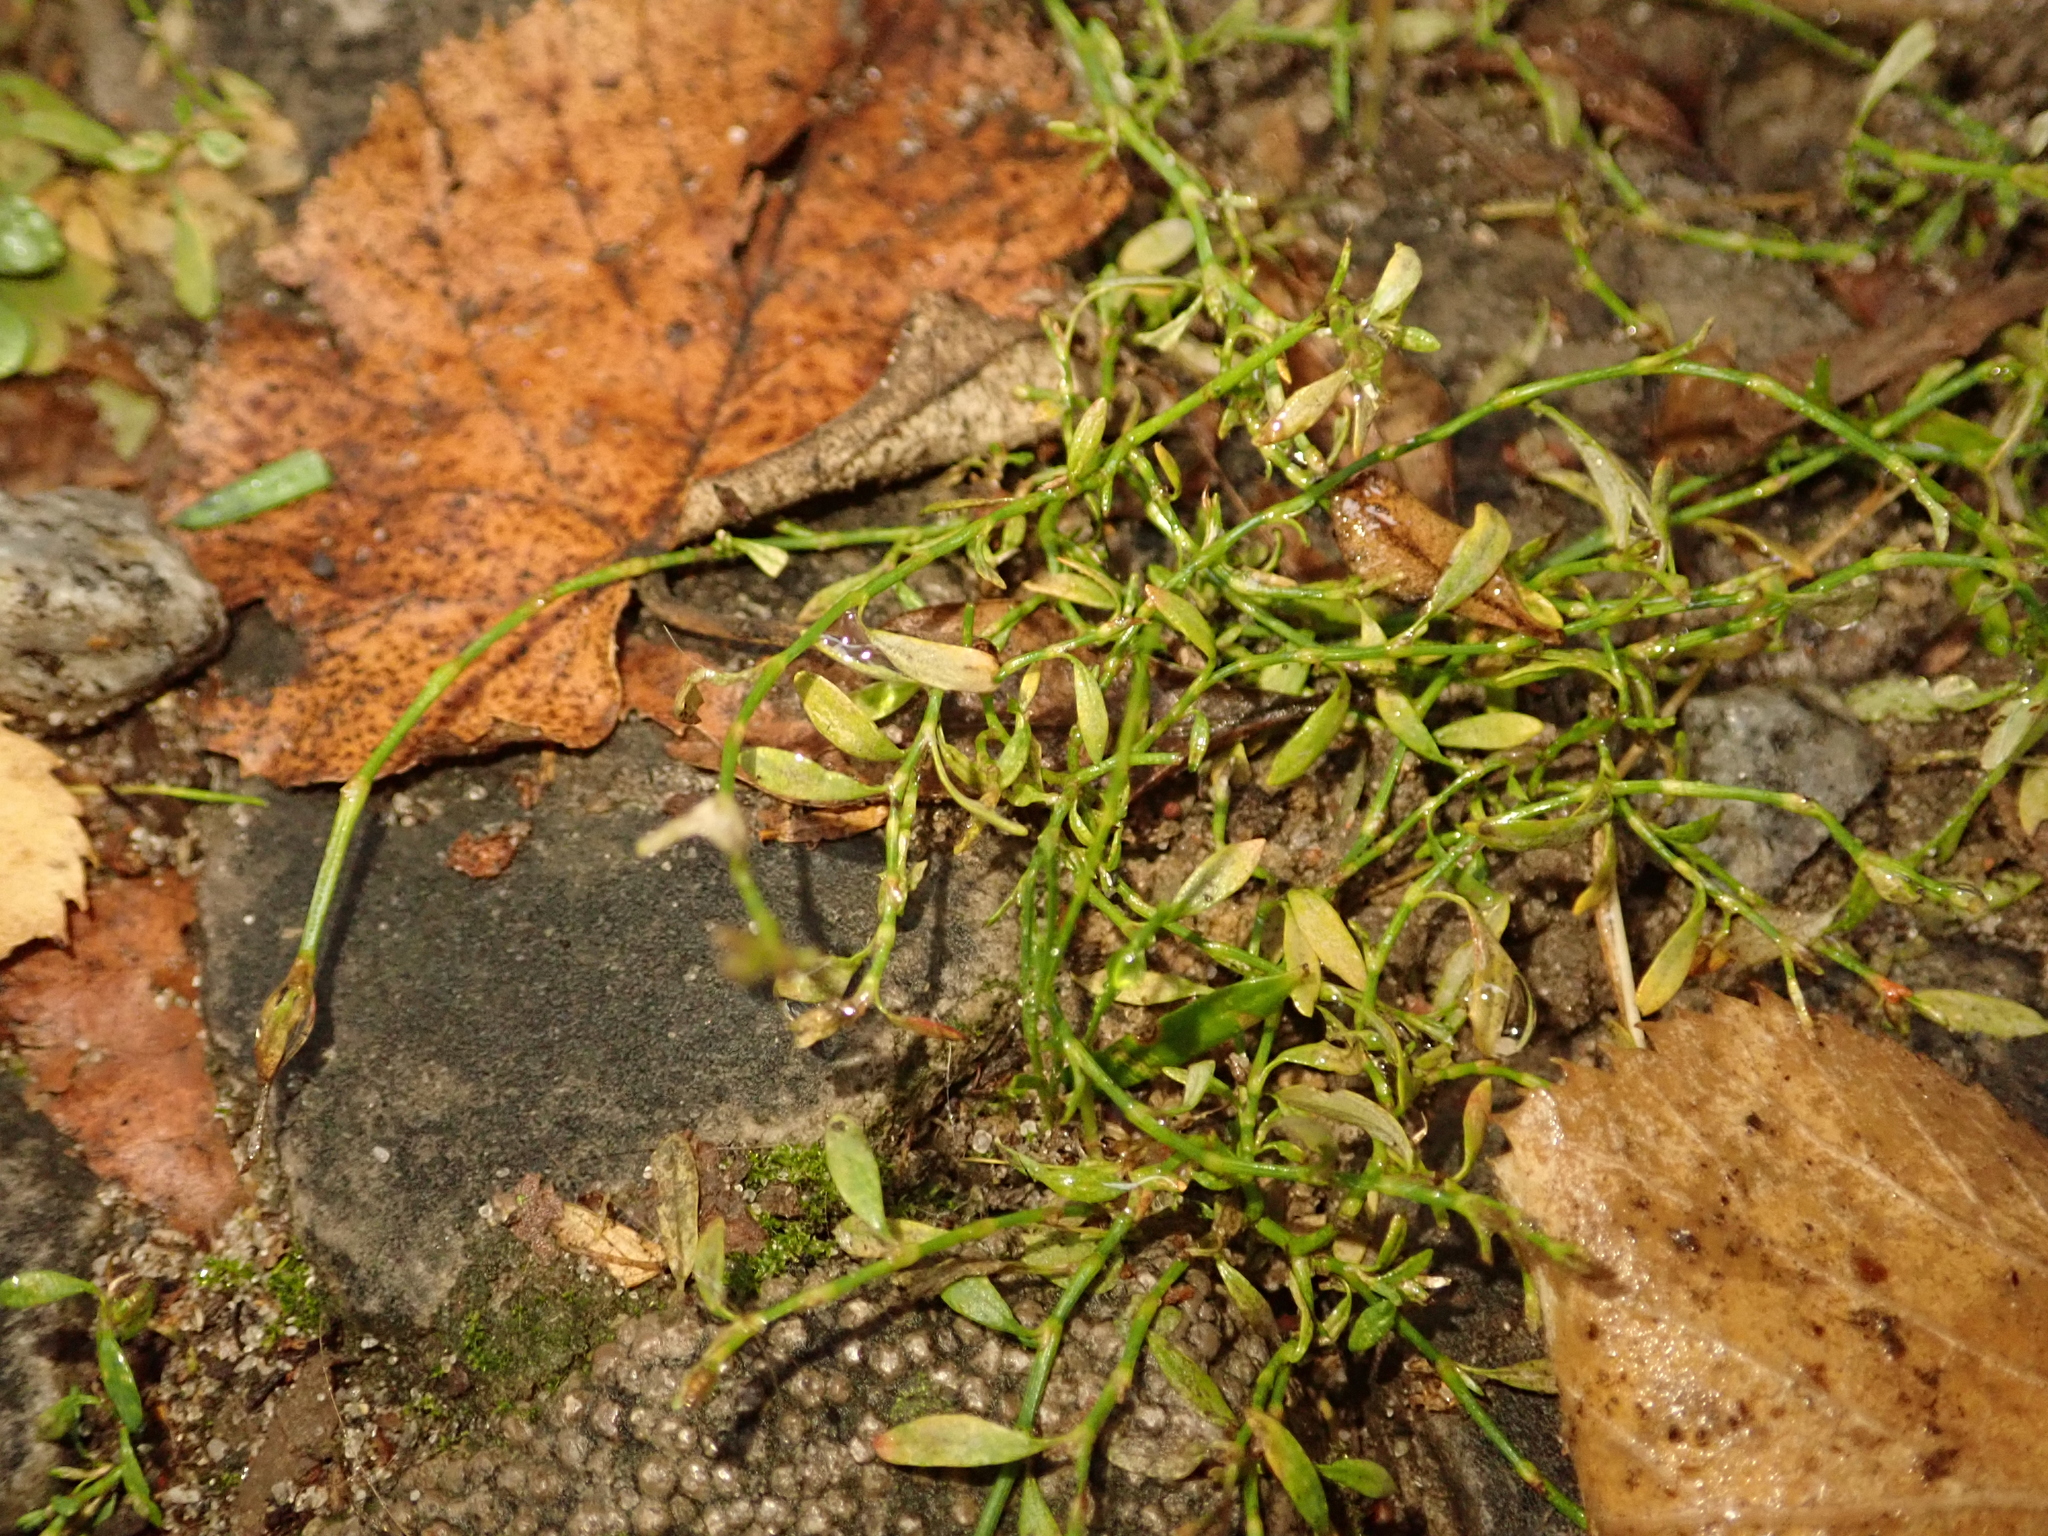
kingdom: Plantae
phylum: Tracheophyta
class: Magnoliopsida
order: Caryophyllales
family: Polygonaceae
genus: Polygonum
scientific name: Polygonum aviculare
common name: Prostrate knotweed
